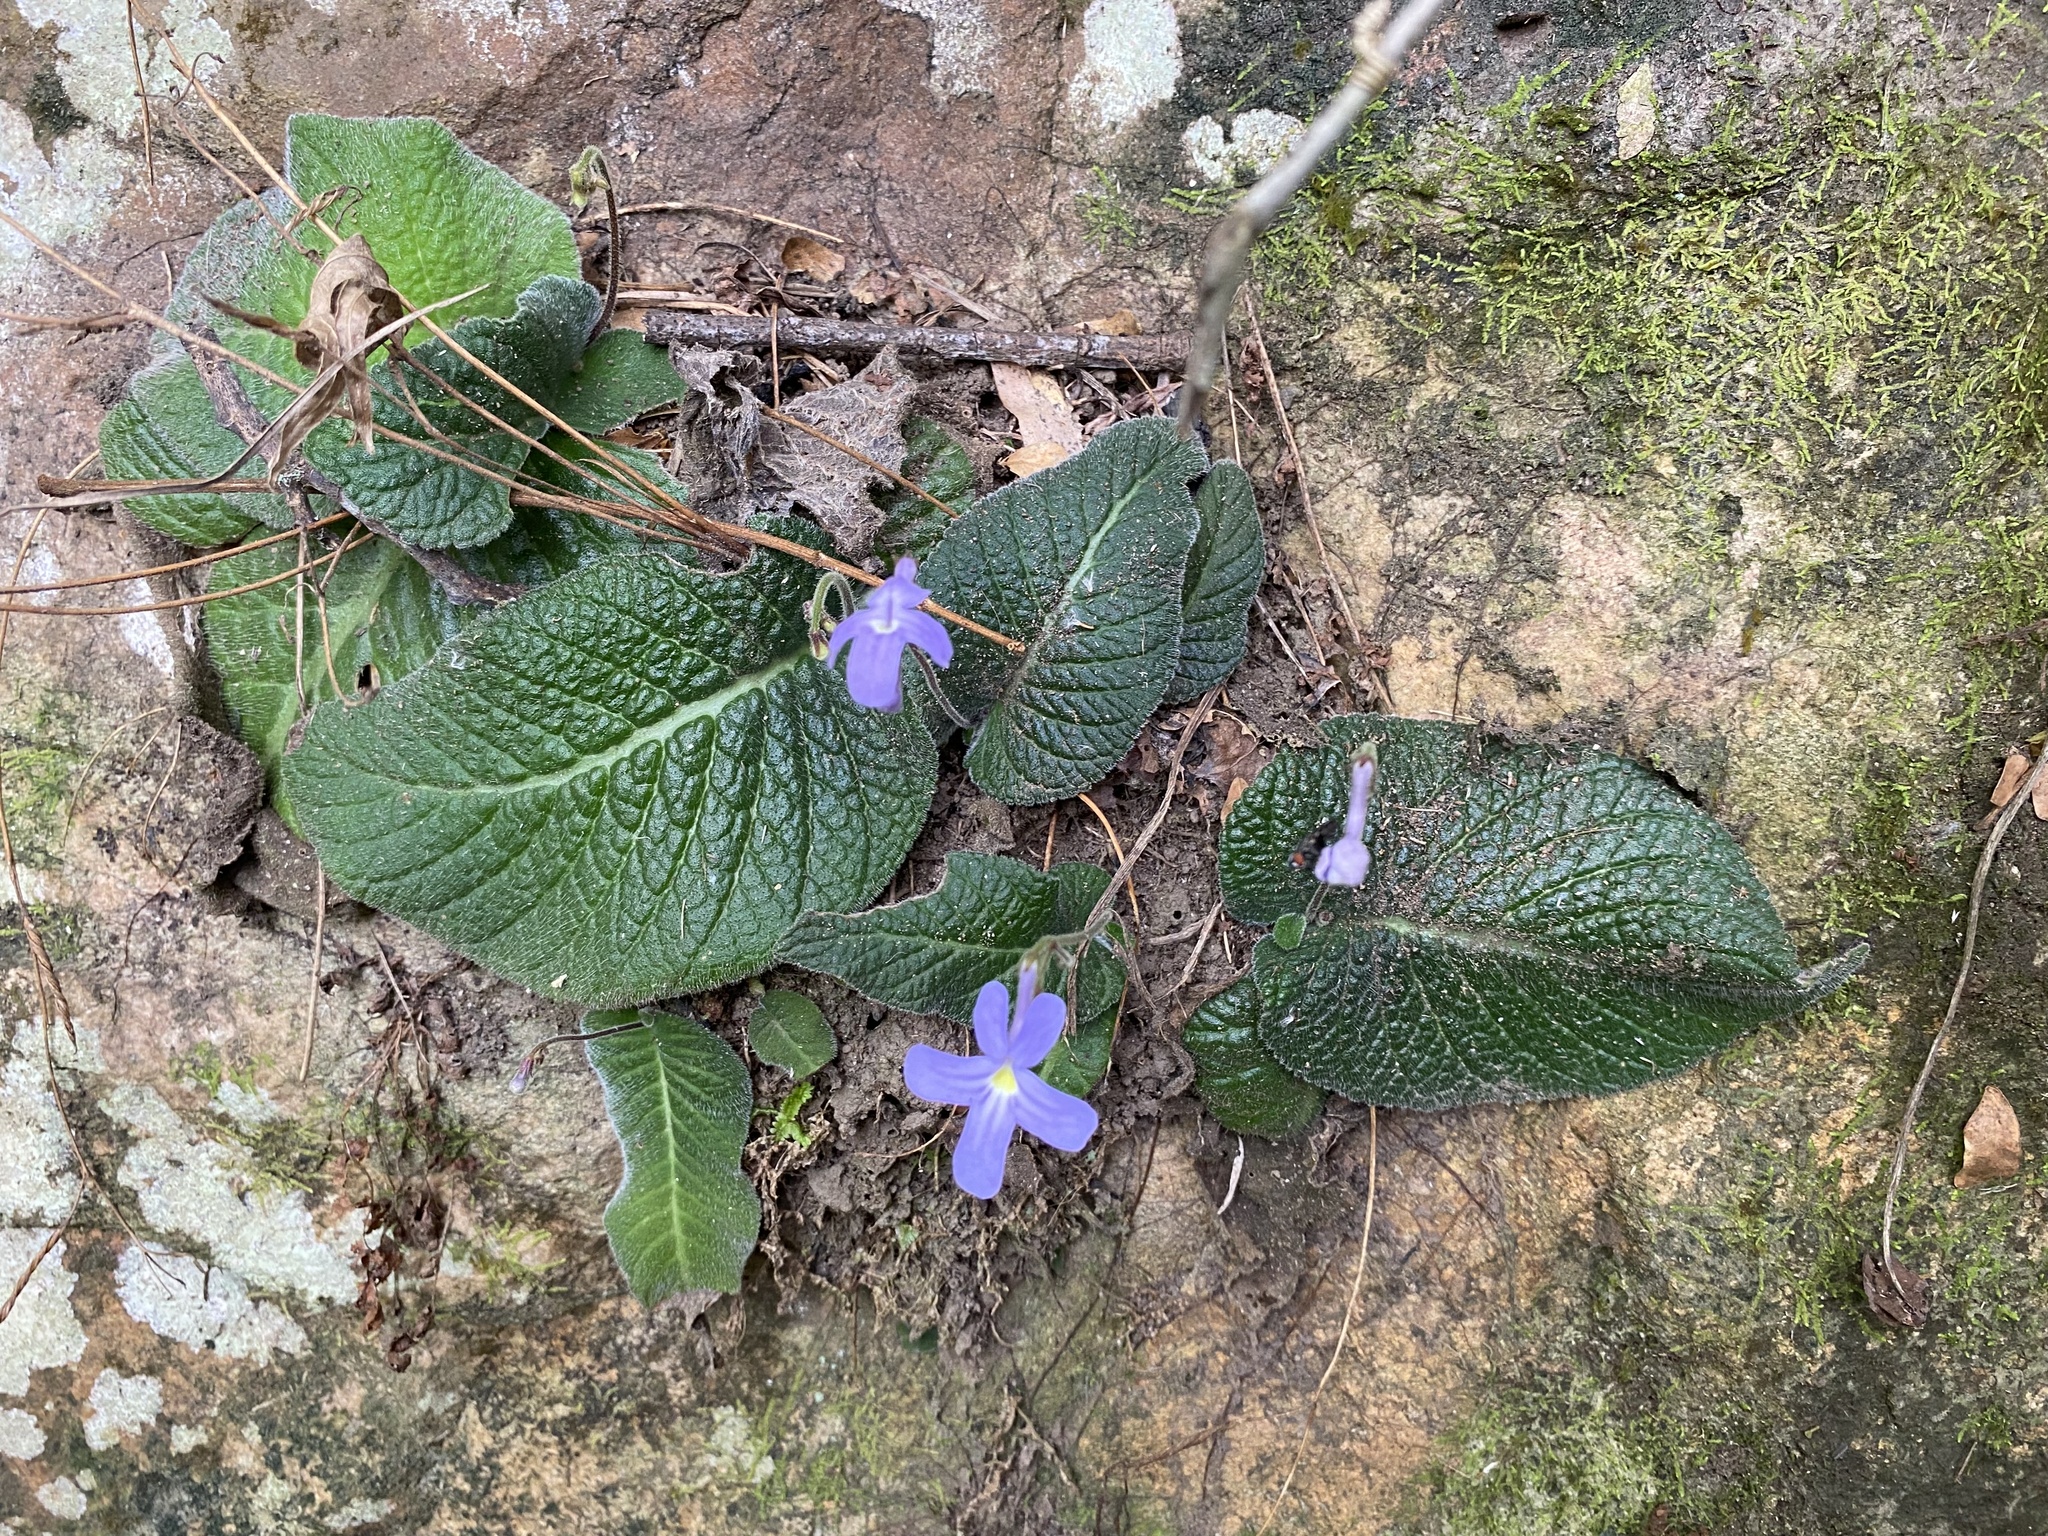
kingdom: Plantae
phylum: Tracheophyta
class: Magnoliopsida
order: Lamiales
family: Gesneriaceae
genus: Streptocarpus
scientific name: Streptocarpus prolixus
